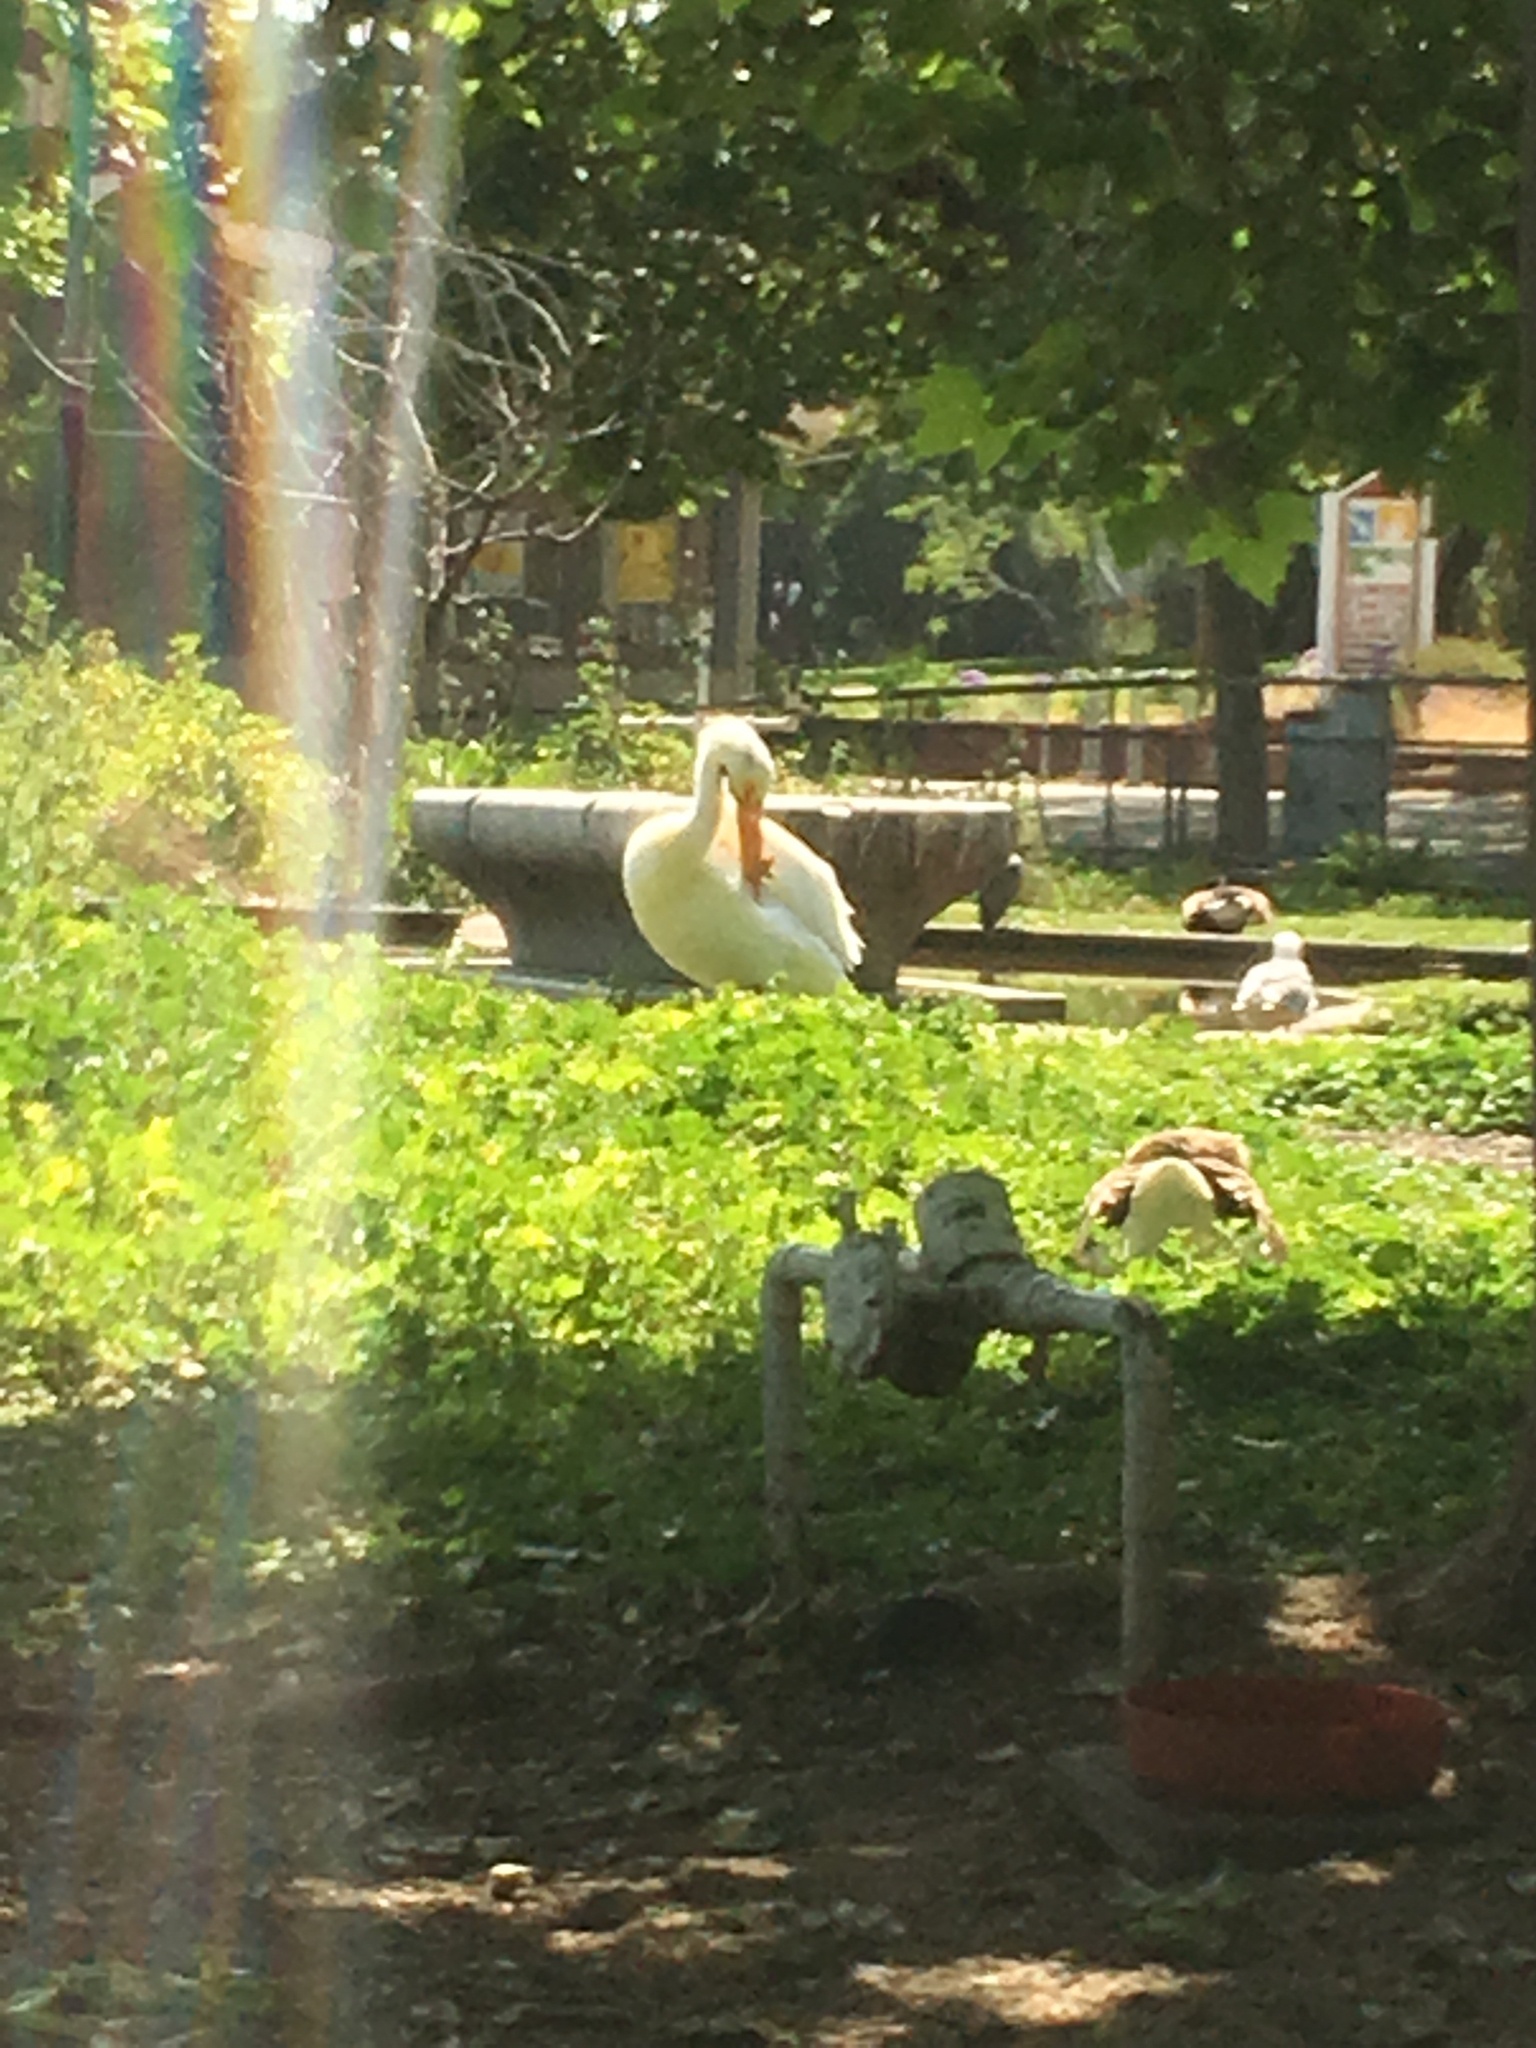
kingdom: Animalia
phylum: Chordata
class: Aves
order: Pelecaniformes
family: Pelecanidae
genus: Pelecanus
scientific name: Pelecanus erythrorhynchos
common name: American white pelican
